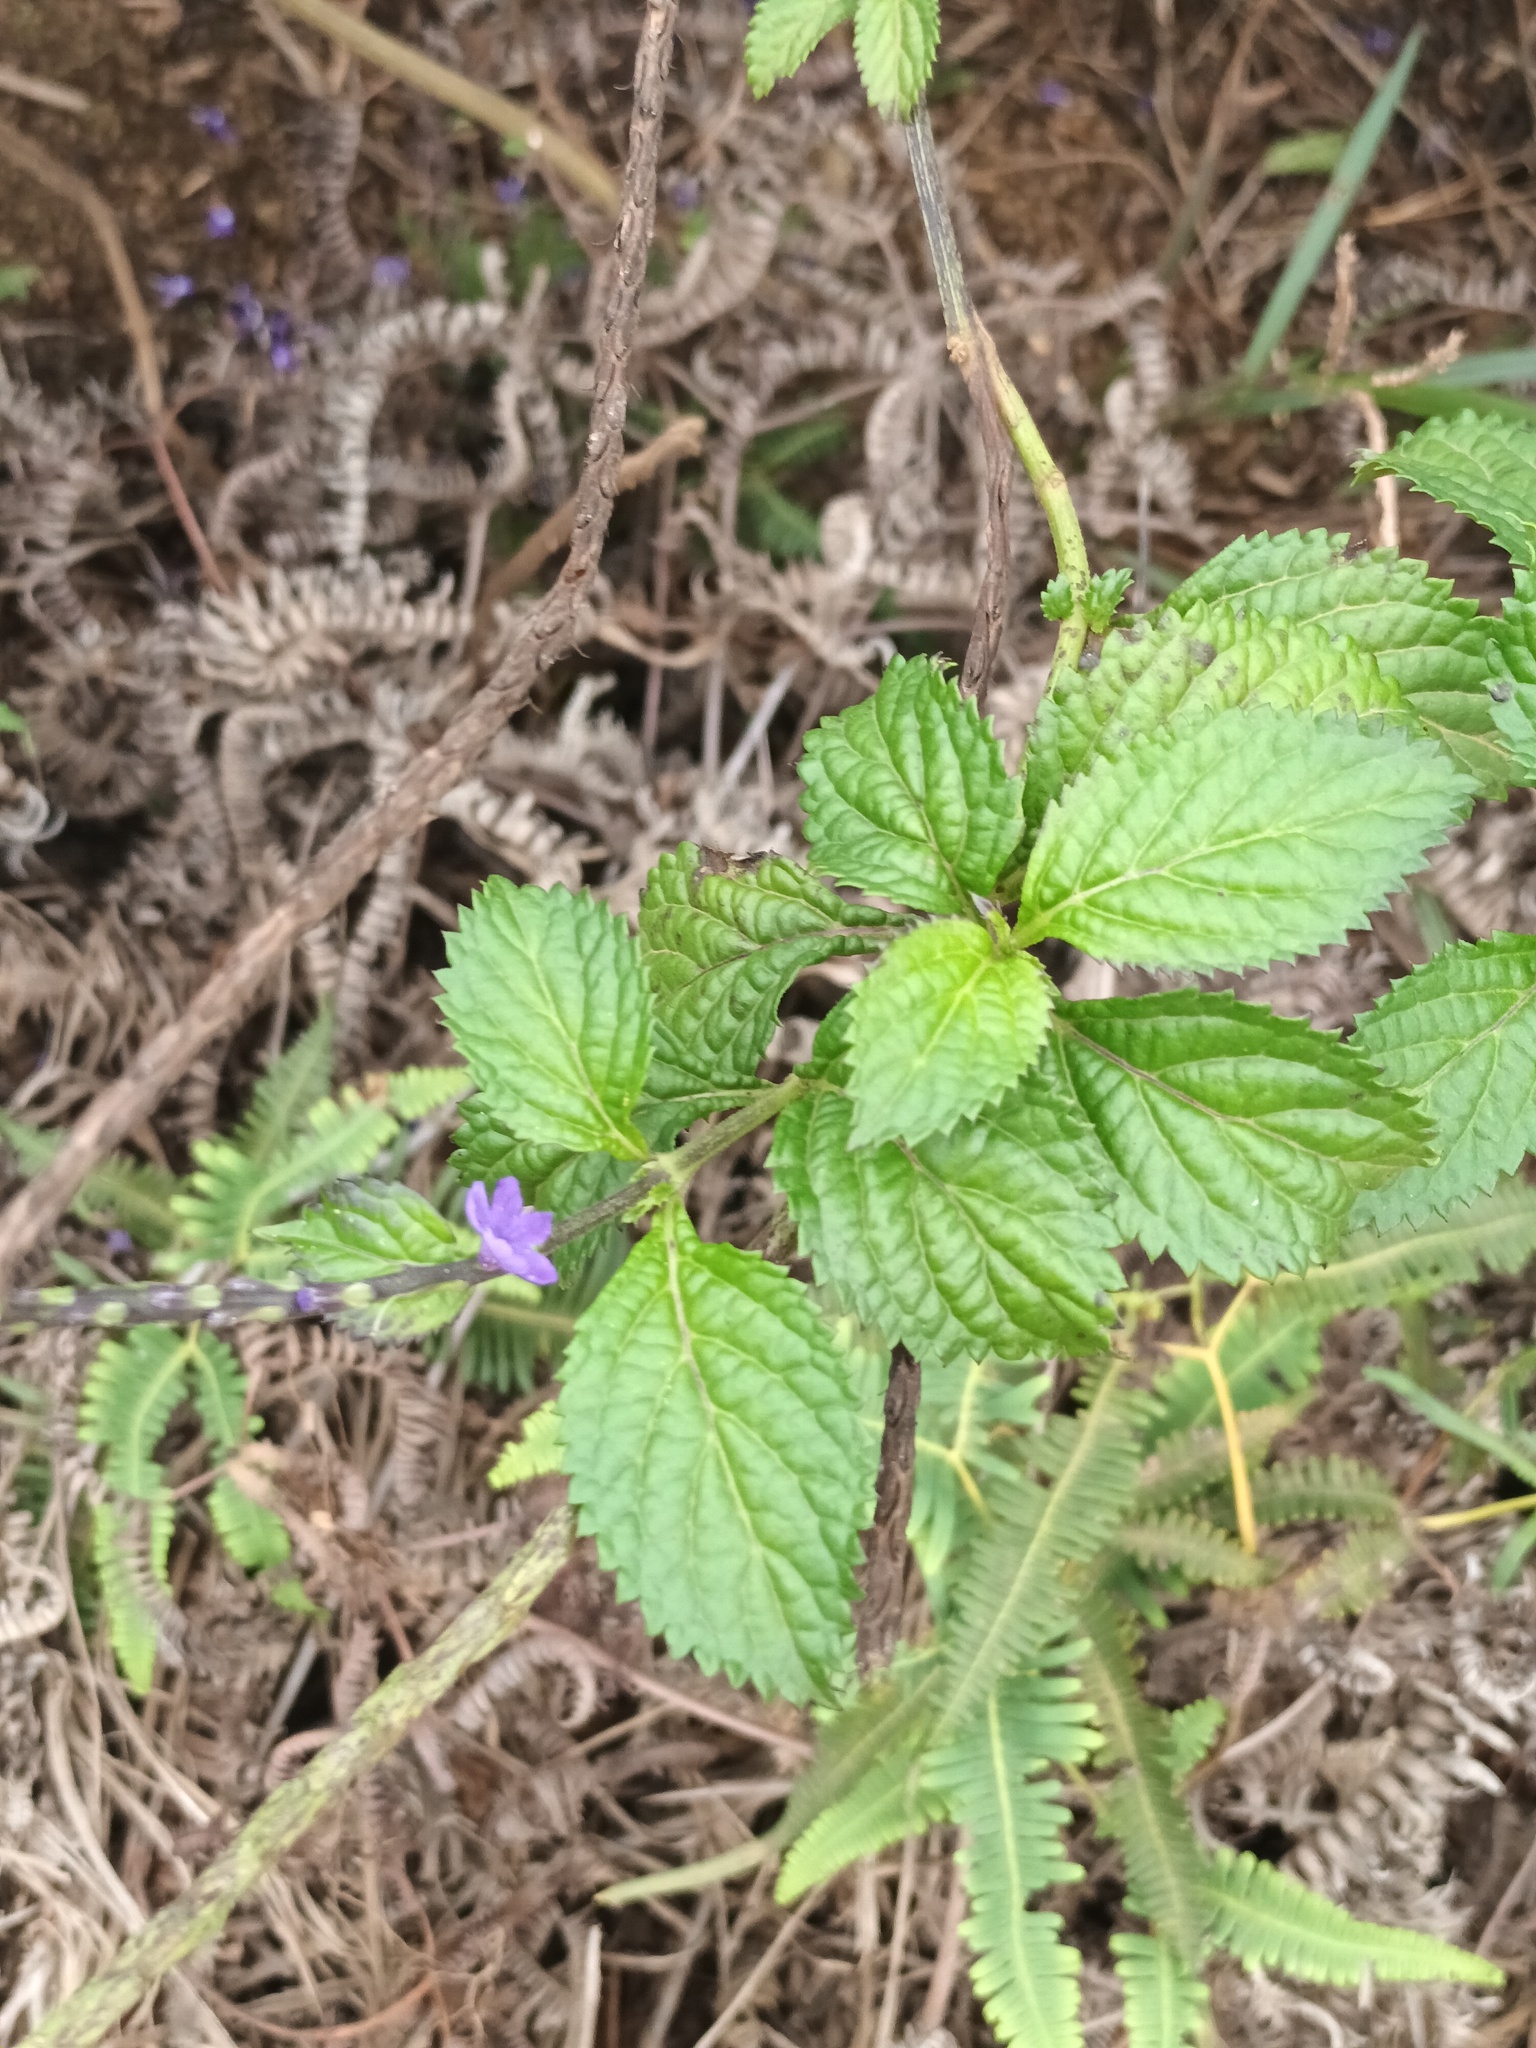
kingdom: Plantae
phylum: Tracheophyta
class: Magnoliopsida
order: Lamiales
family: Verbenaceae
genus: Stachytarpheta
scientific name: Stachytarpheta cayennensis
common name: Cayenne porterweed
